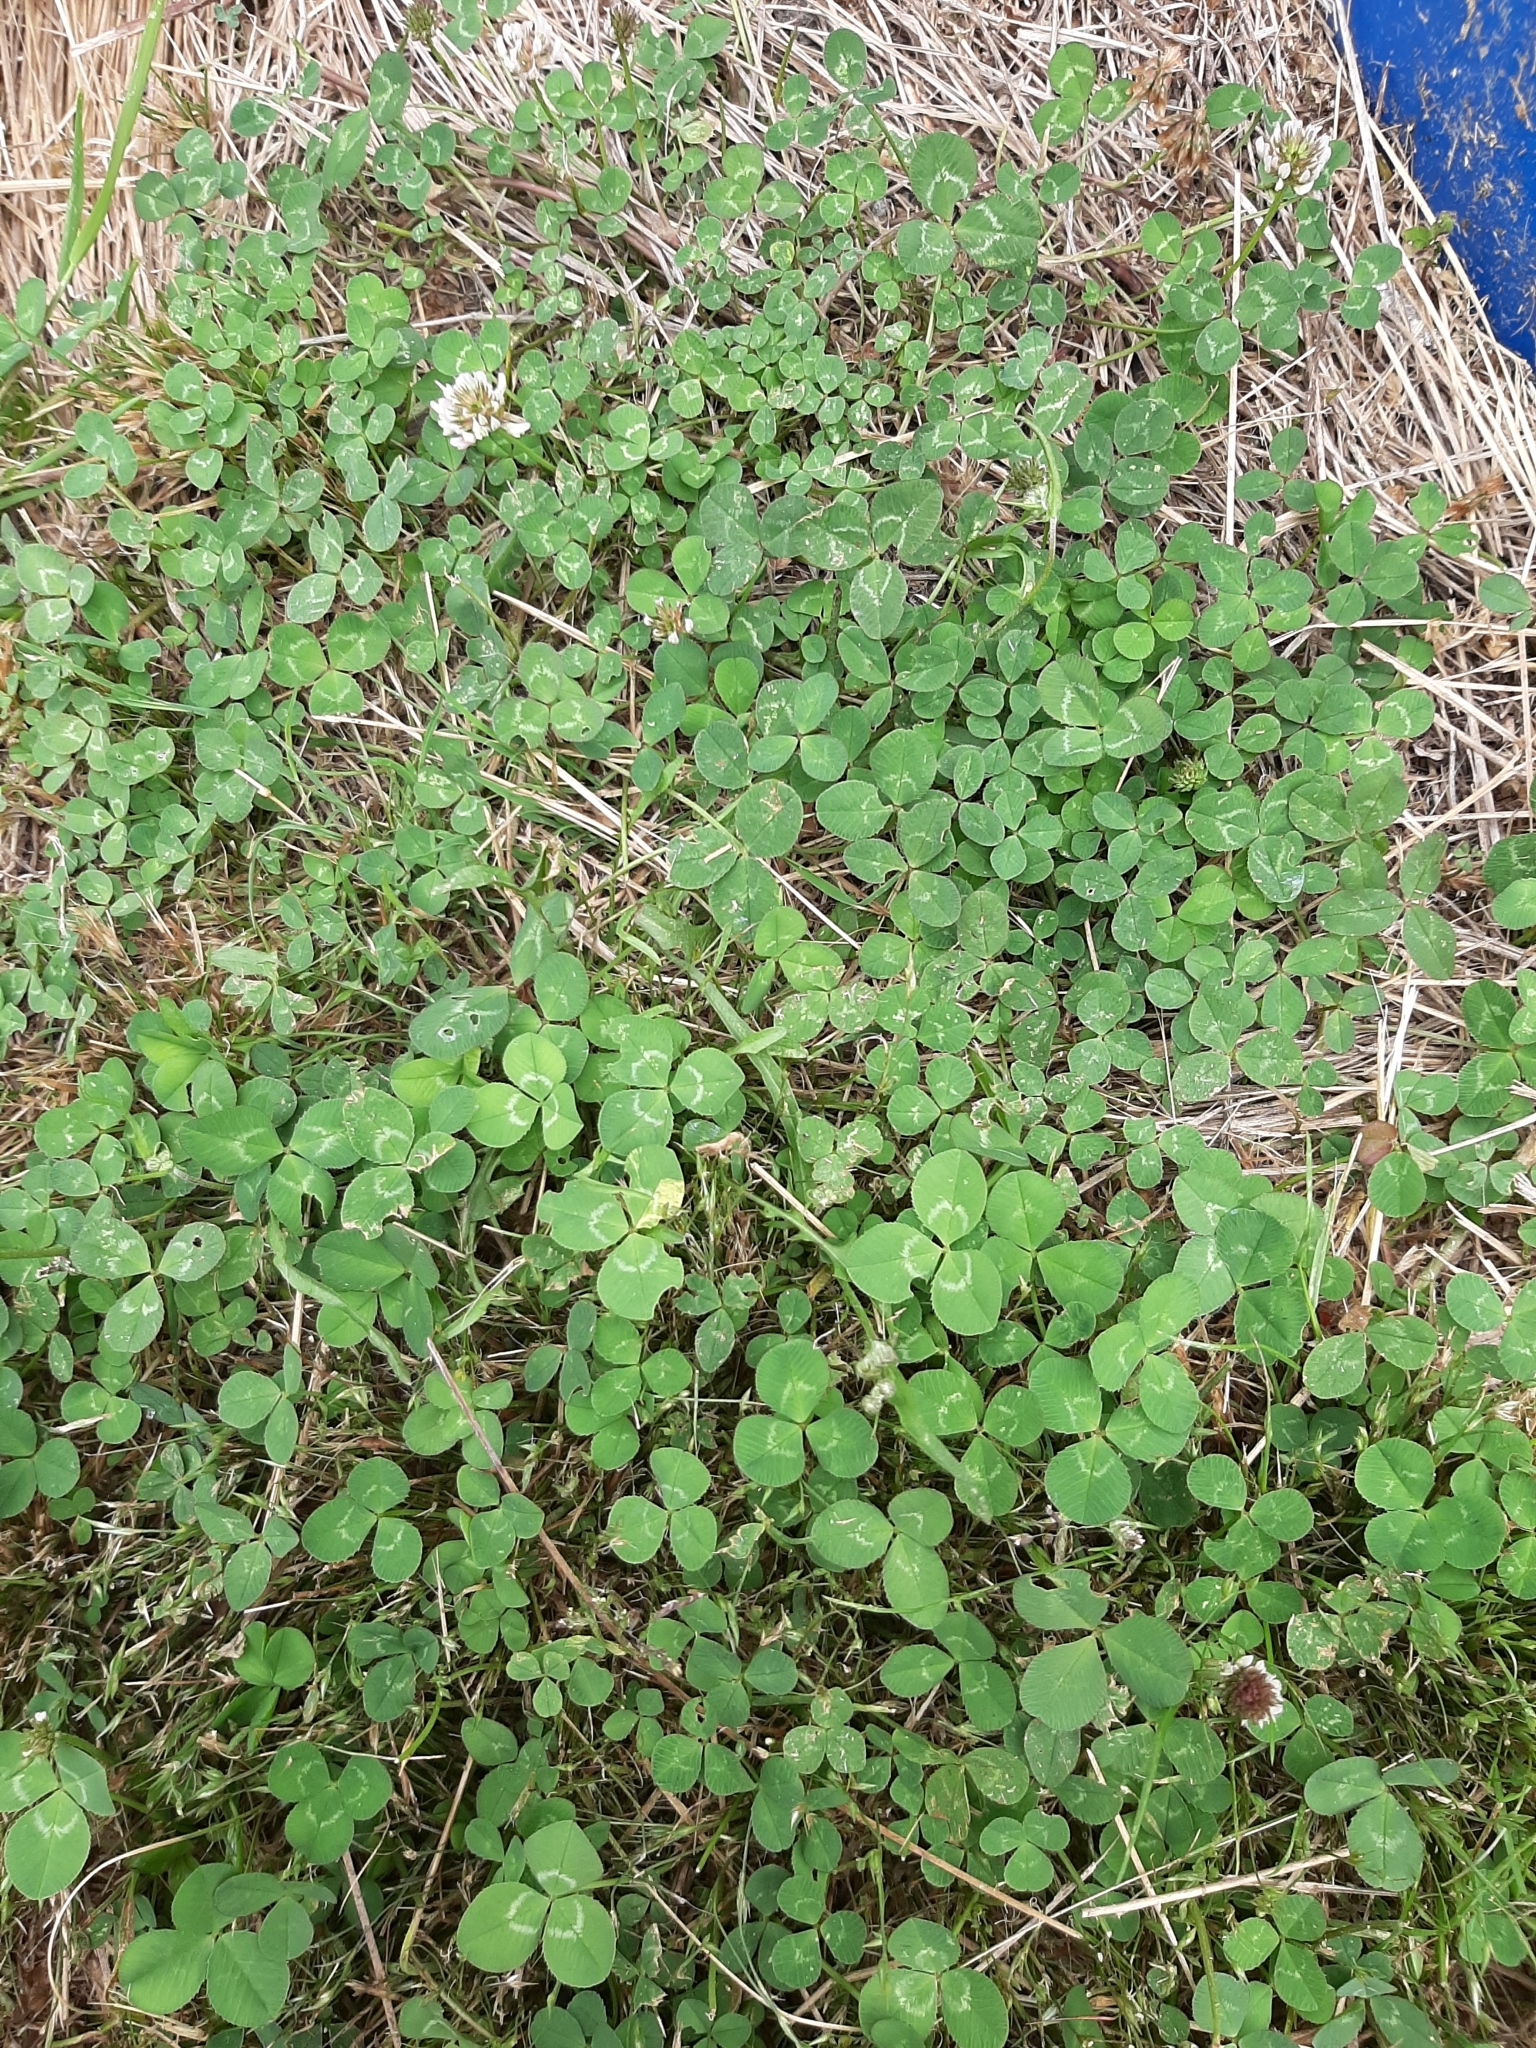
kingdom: Plantae
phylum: Tracheophyta
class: Magnoliopsida
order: Fabales
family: Fabaceae
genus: Trifolium
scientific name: Trifolium repens
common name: White clover
